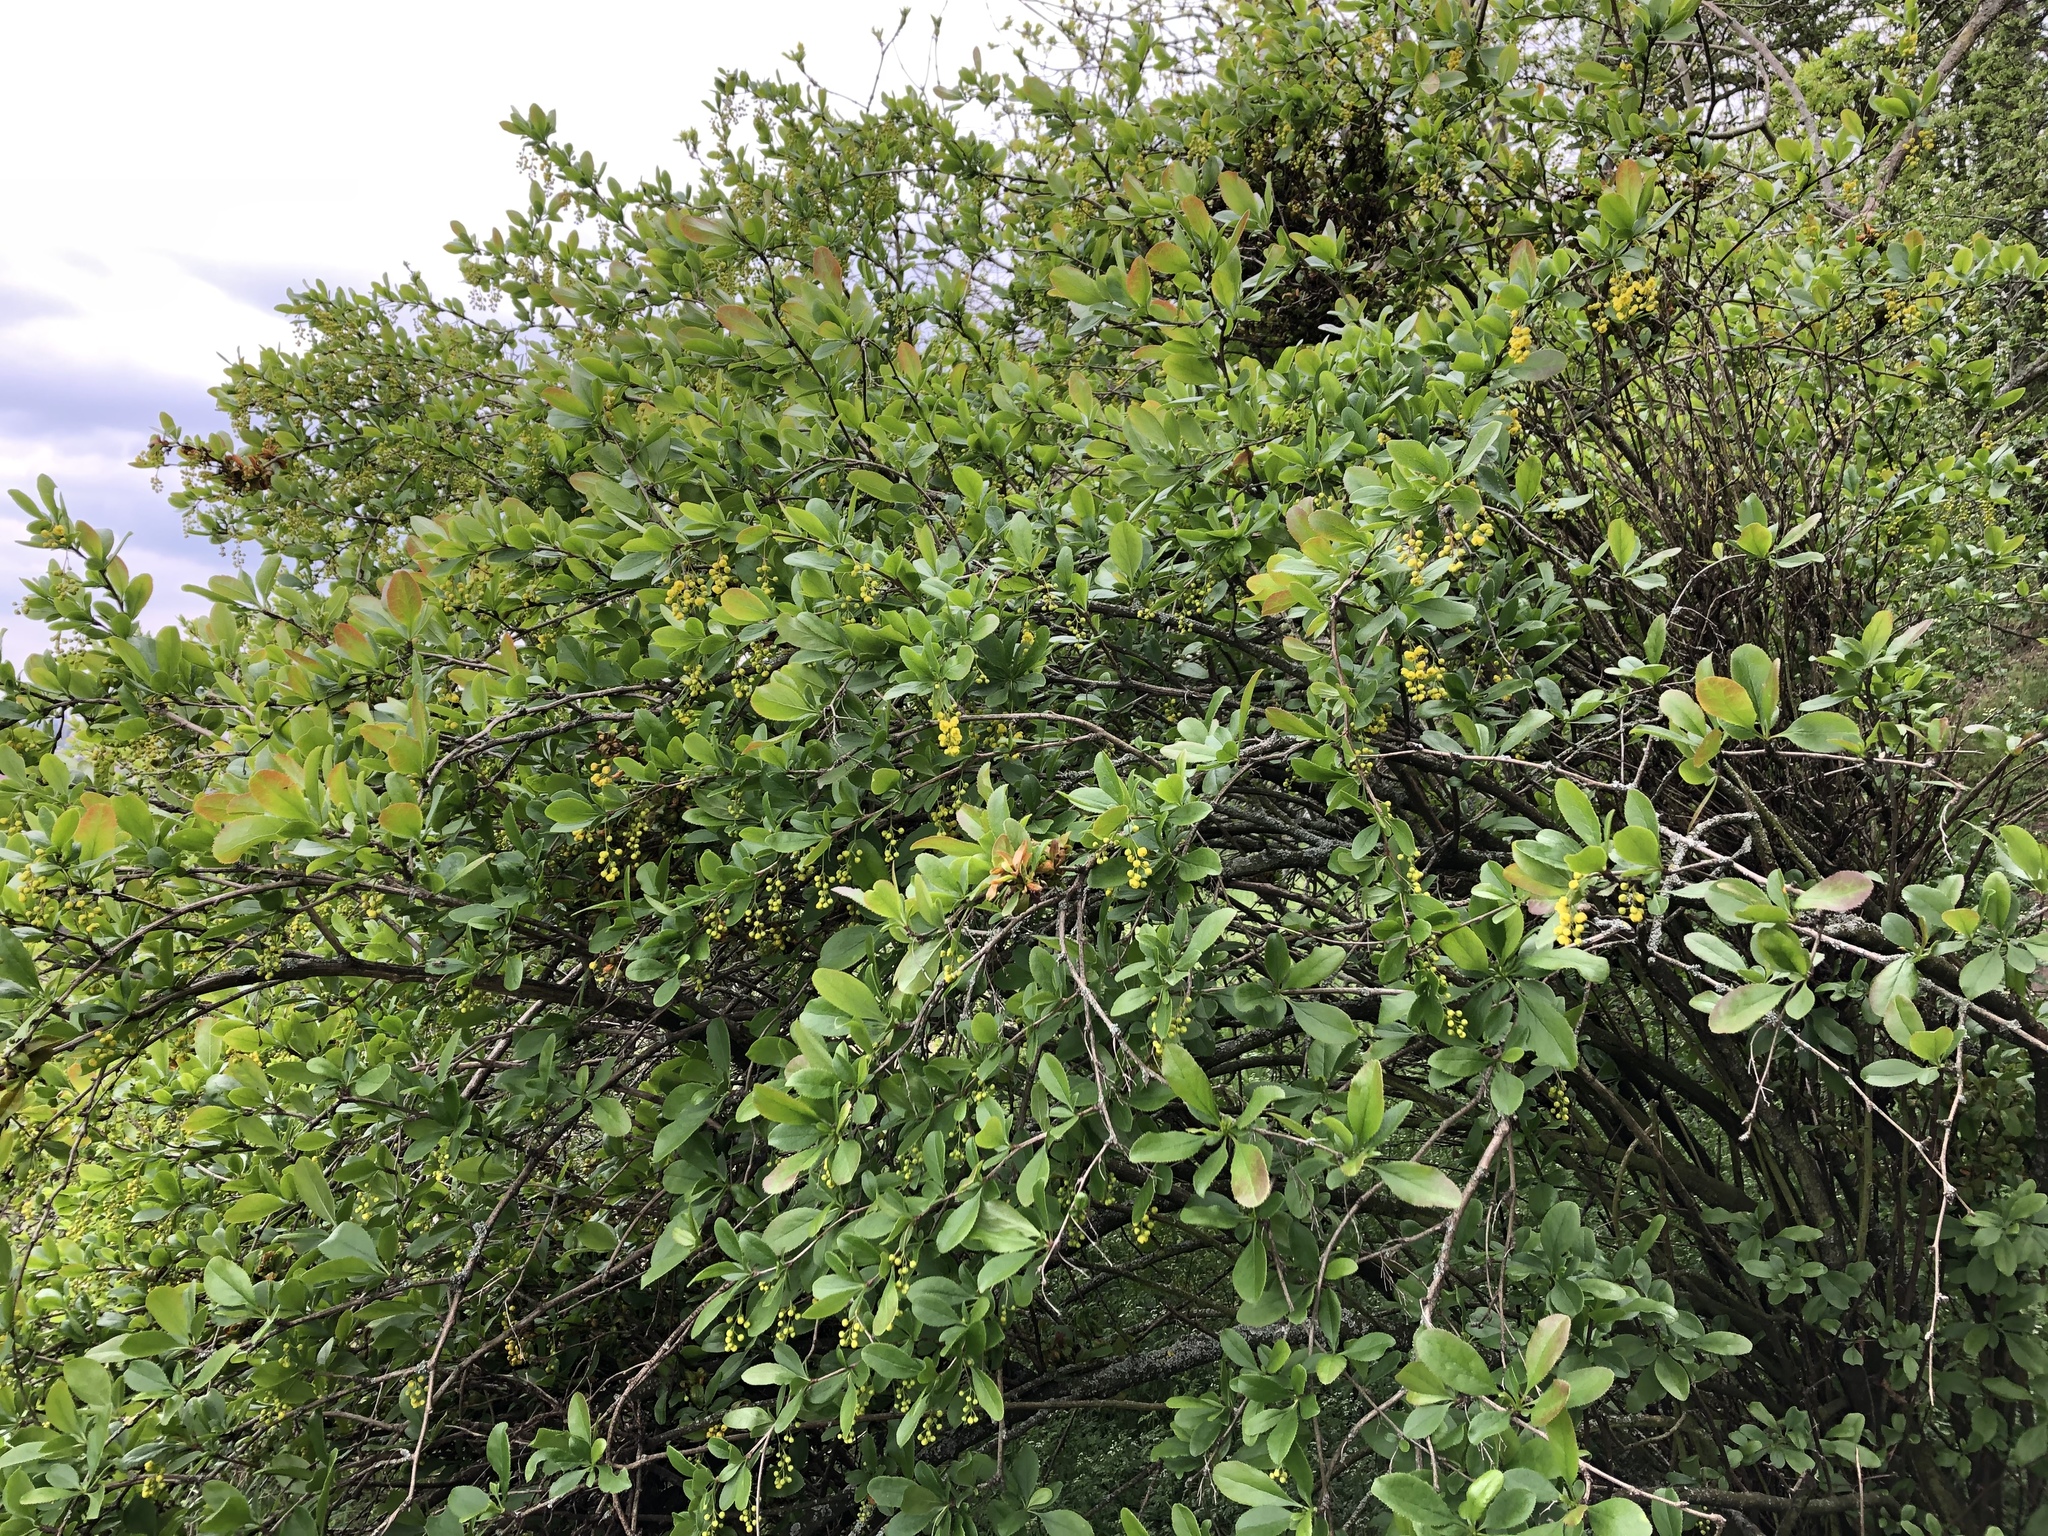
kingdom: Plantae
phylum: Tracheophyta
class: Magnoliopsida
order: Ranunculales
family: Berberidaceae
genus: Berberis
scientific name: Berberis vulgaris
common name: Barberry
